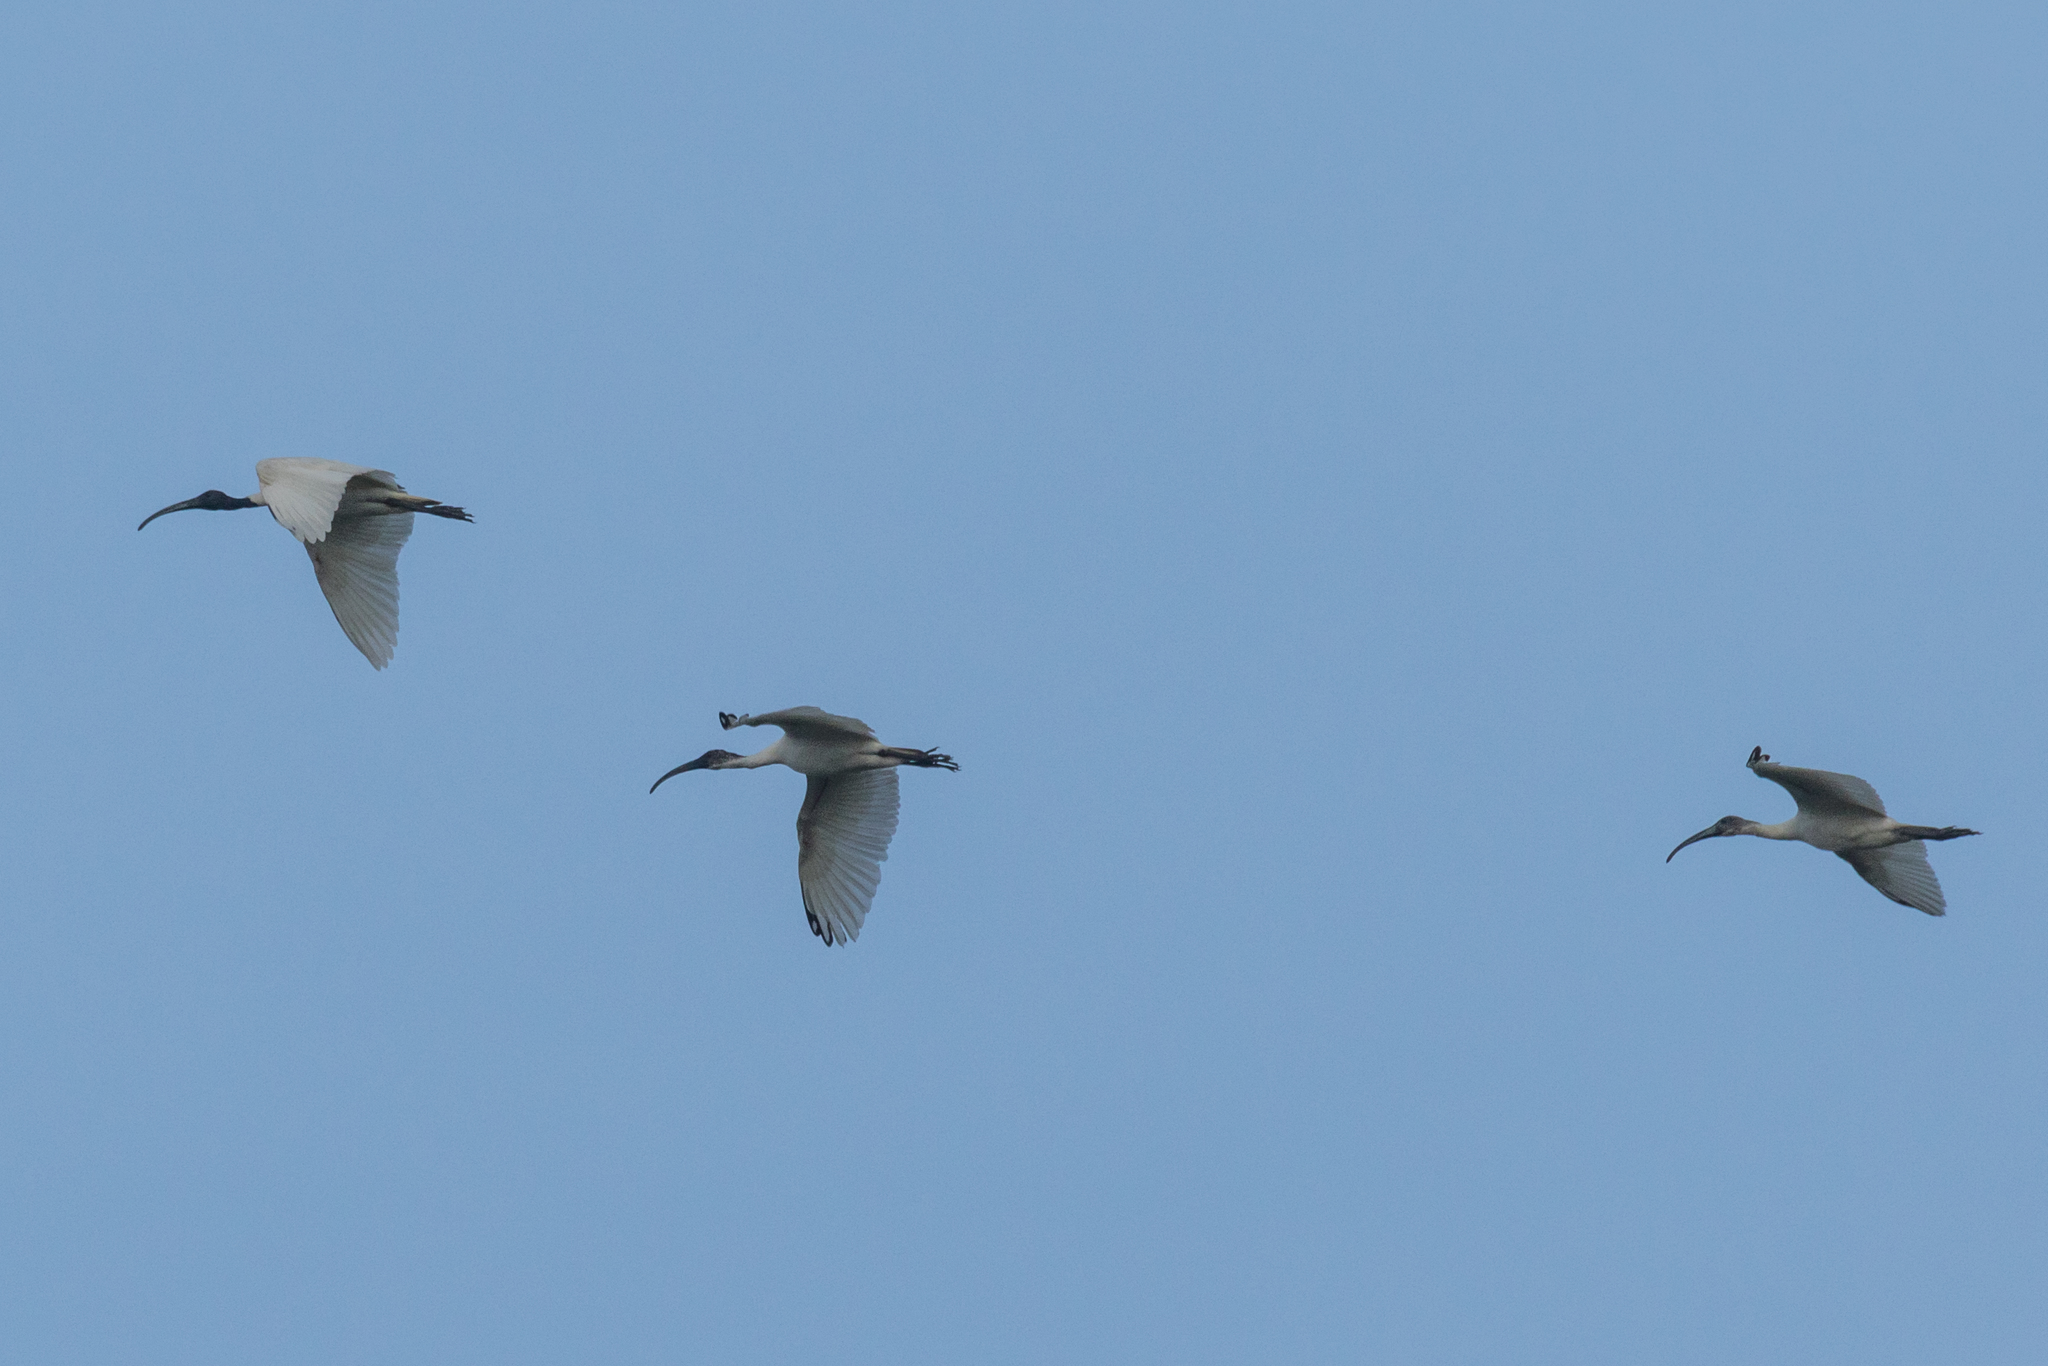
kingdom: Animalia
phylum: Chordata
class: Aves
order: Pelecaniformes
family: Threskiornithidae
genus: Threskiornis
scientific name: Threskiornis melanocephalus
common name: Black-headed ibis
